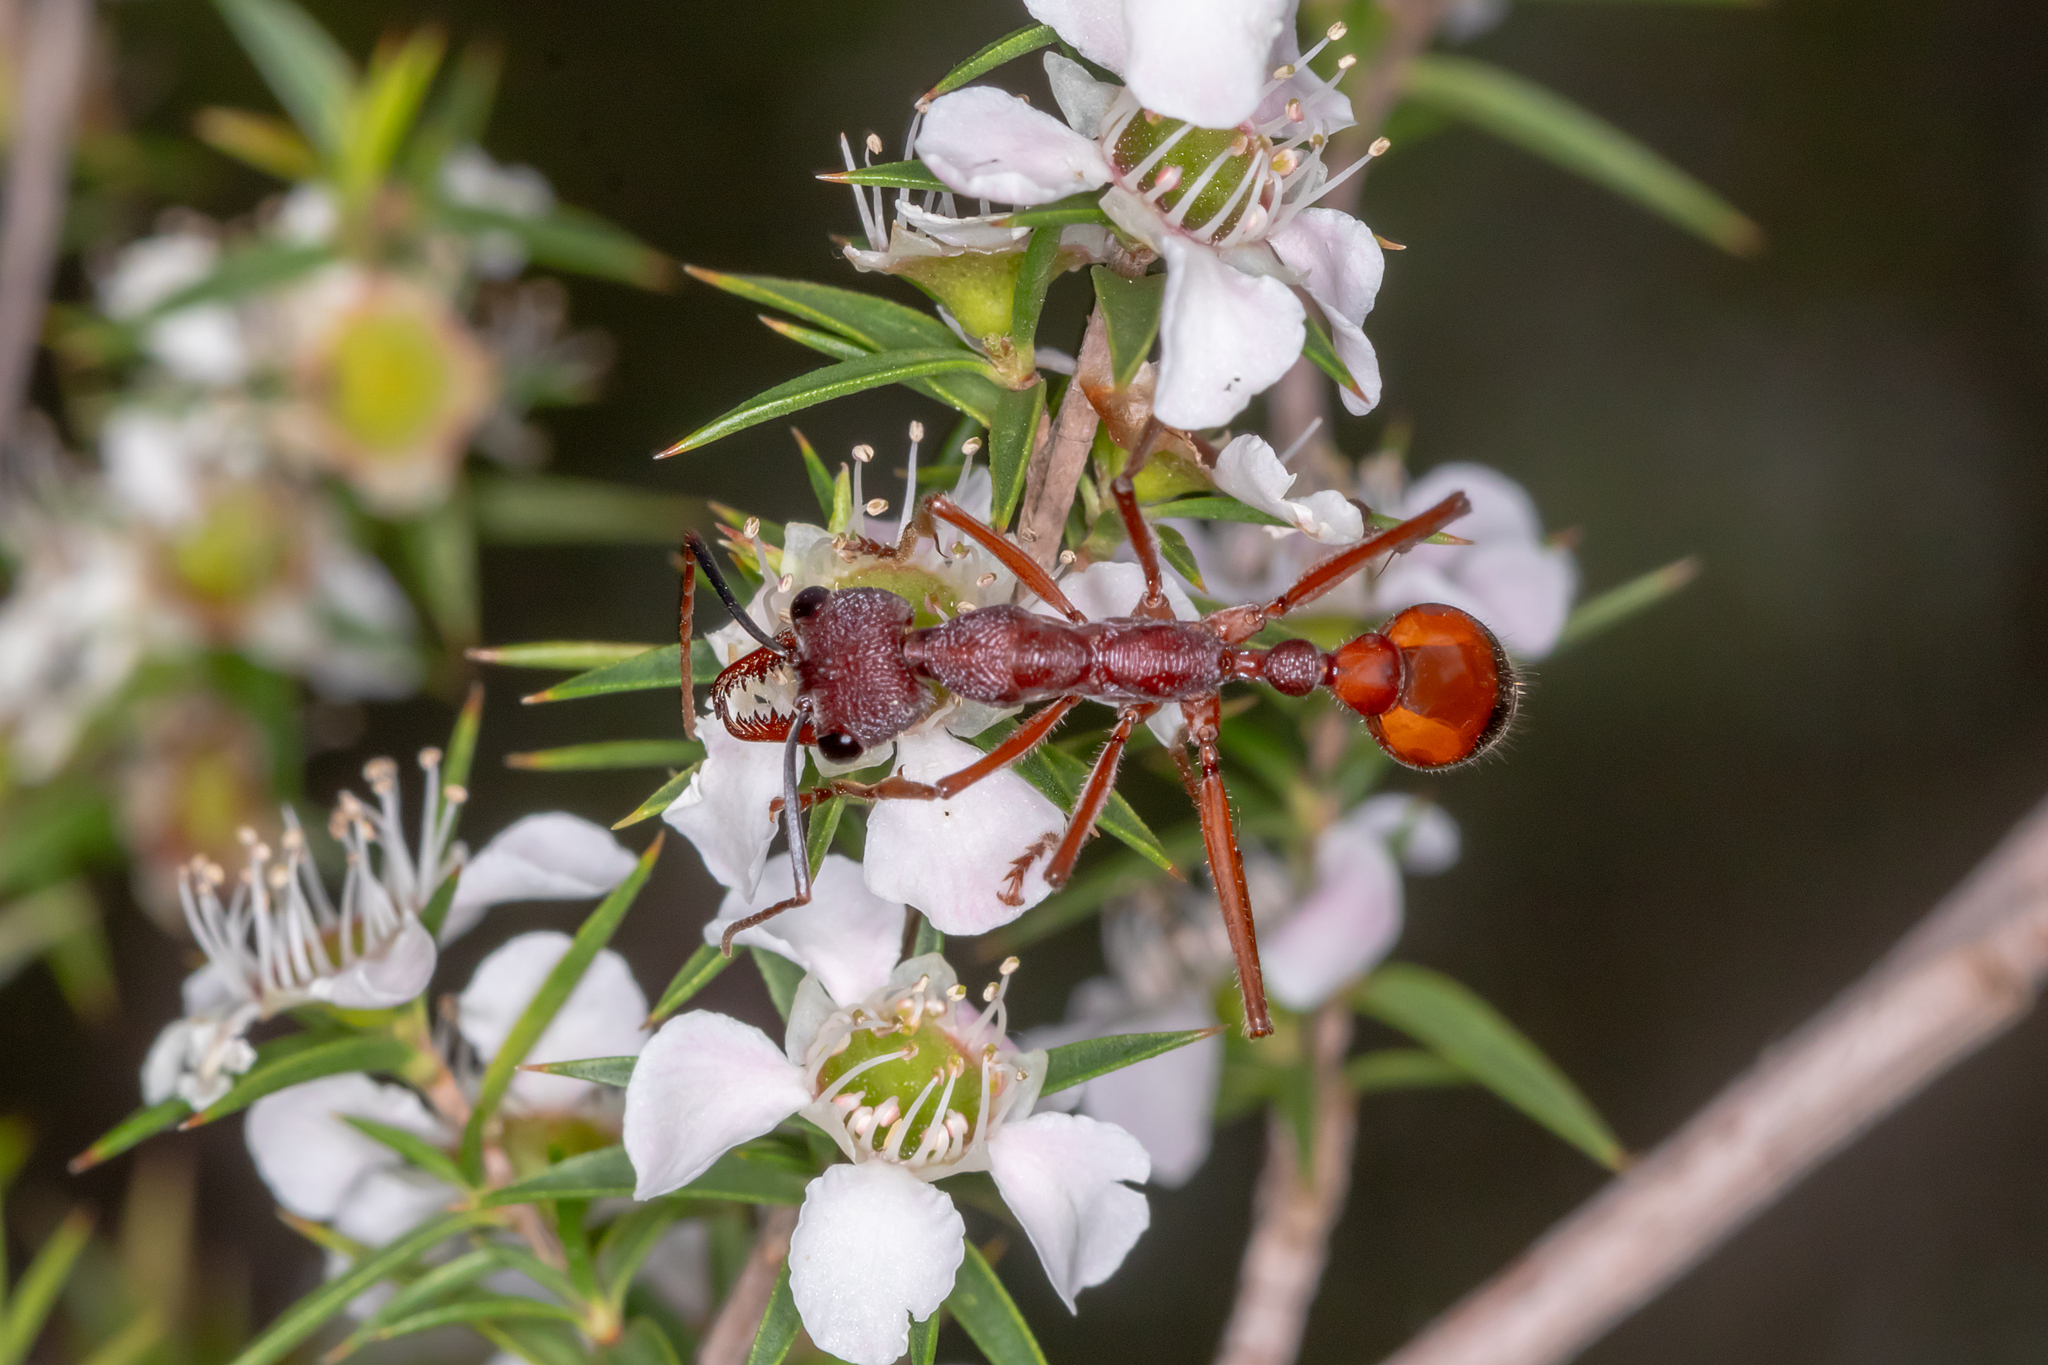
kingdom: Animalia
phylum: Arthropoda
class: Insecta
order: Hymenoptera
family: Formicidae
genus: Myrmecia
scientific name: Myrmecia nigriscapa
